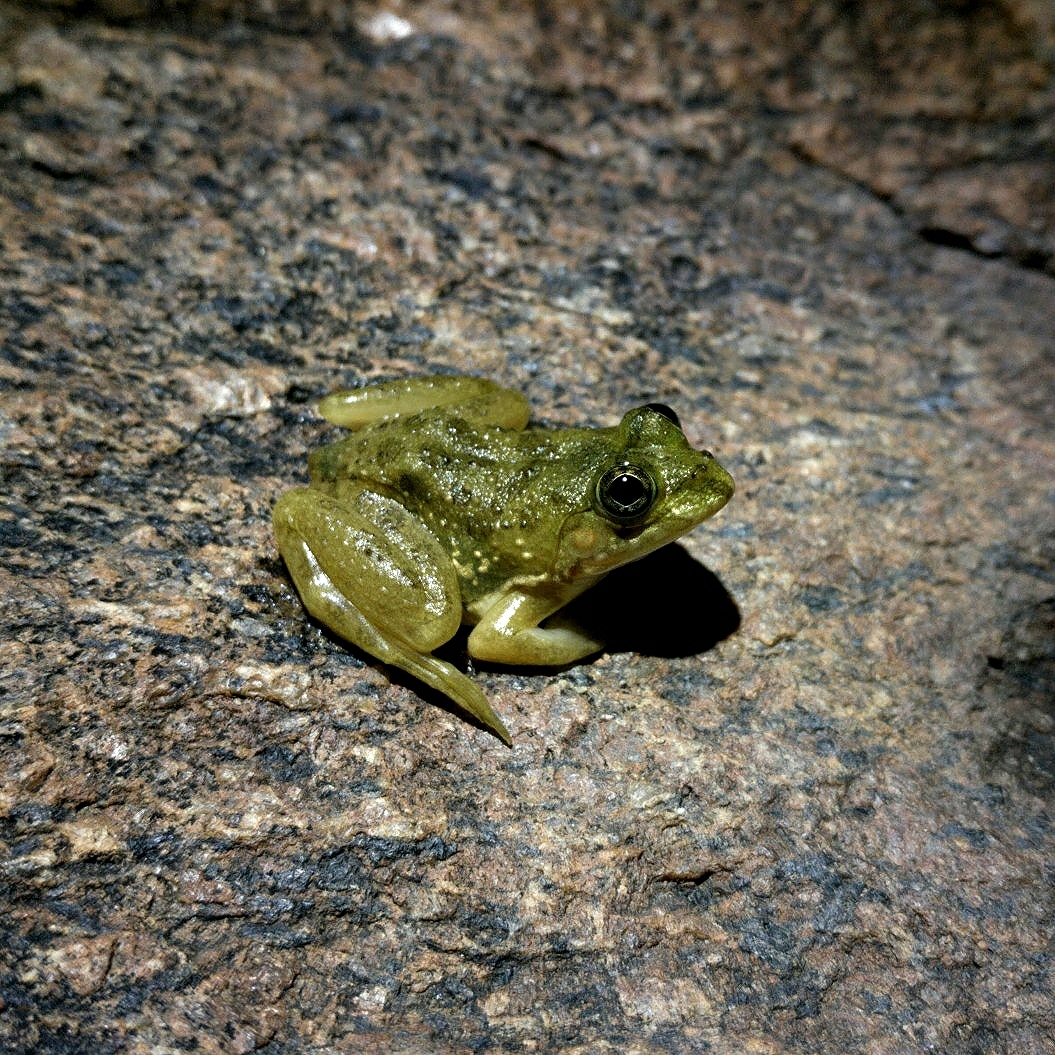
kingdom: Animalia
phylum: Chordata
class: Amphibia
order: Anura
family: Dicroglossidae
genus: Euphlyctis
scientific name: Euphlyctis cyanophlyctis
